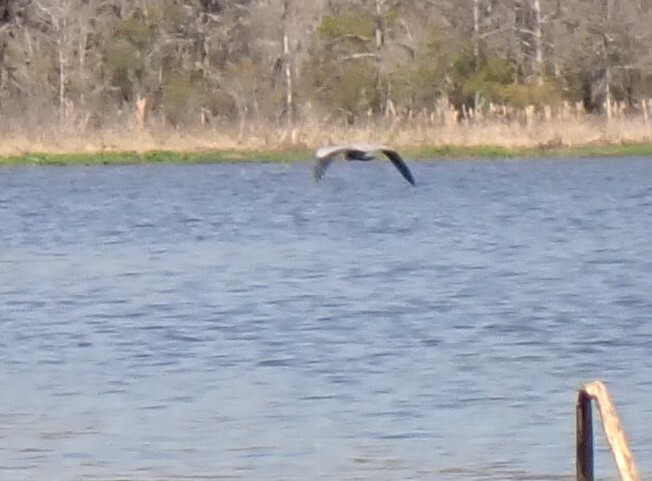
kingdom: Animalia
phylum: Chordata
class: Aves
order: Pelecaniformes
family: Ardeidae
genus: Ardea
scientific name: Ardea herodias
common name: Great blue heron
